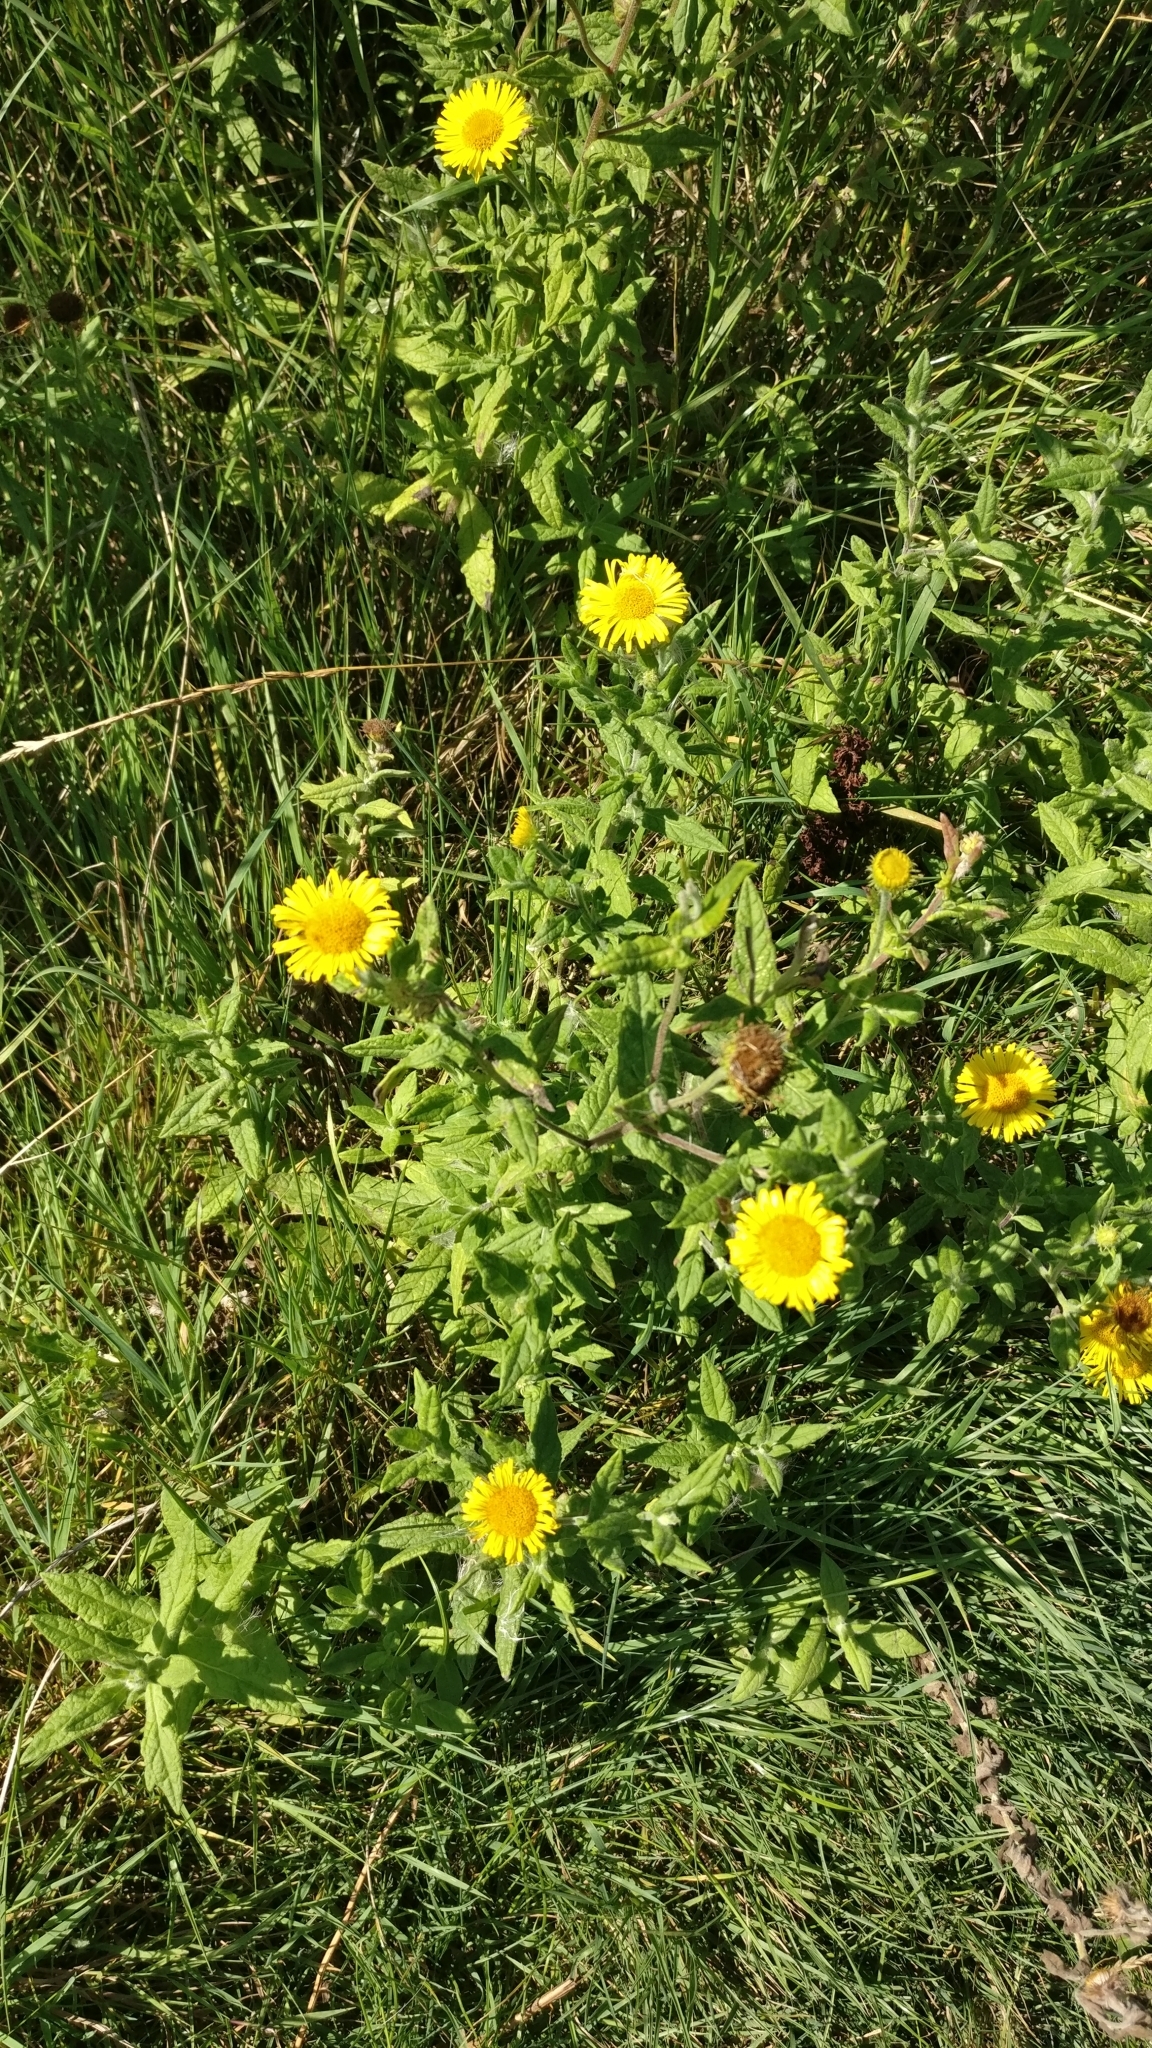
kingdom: Plantae
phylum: Tracheophyta
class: Magnoliopsida
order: Asterales
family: Asteraceae
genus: Pulicaria
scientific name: Pulicaria dysenterica
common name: Common fleabane
